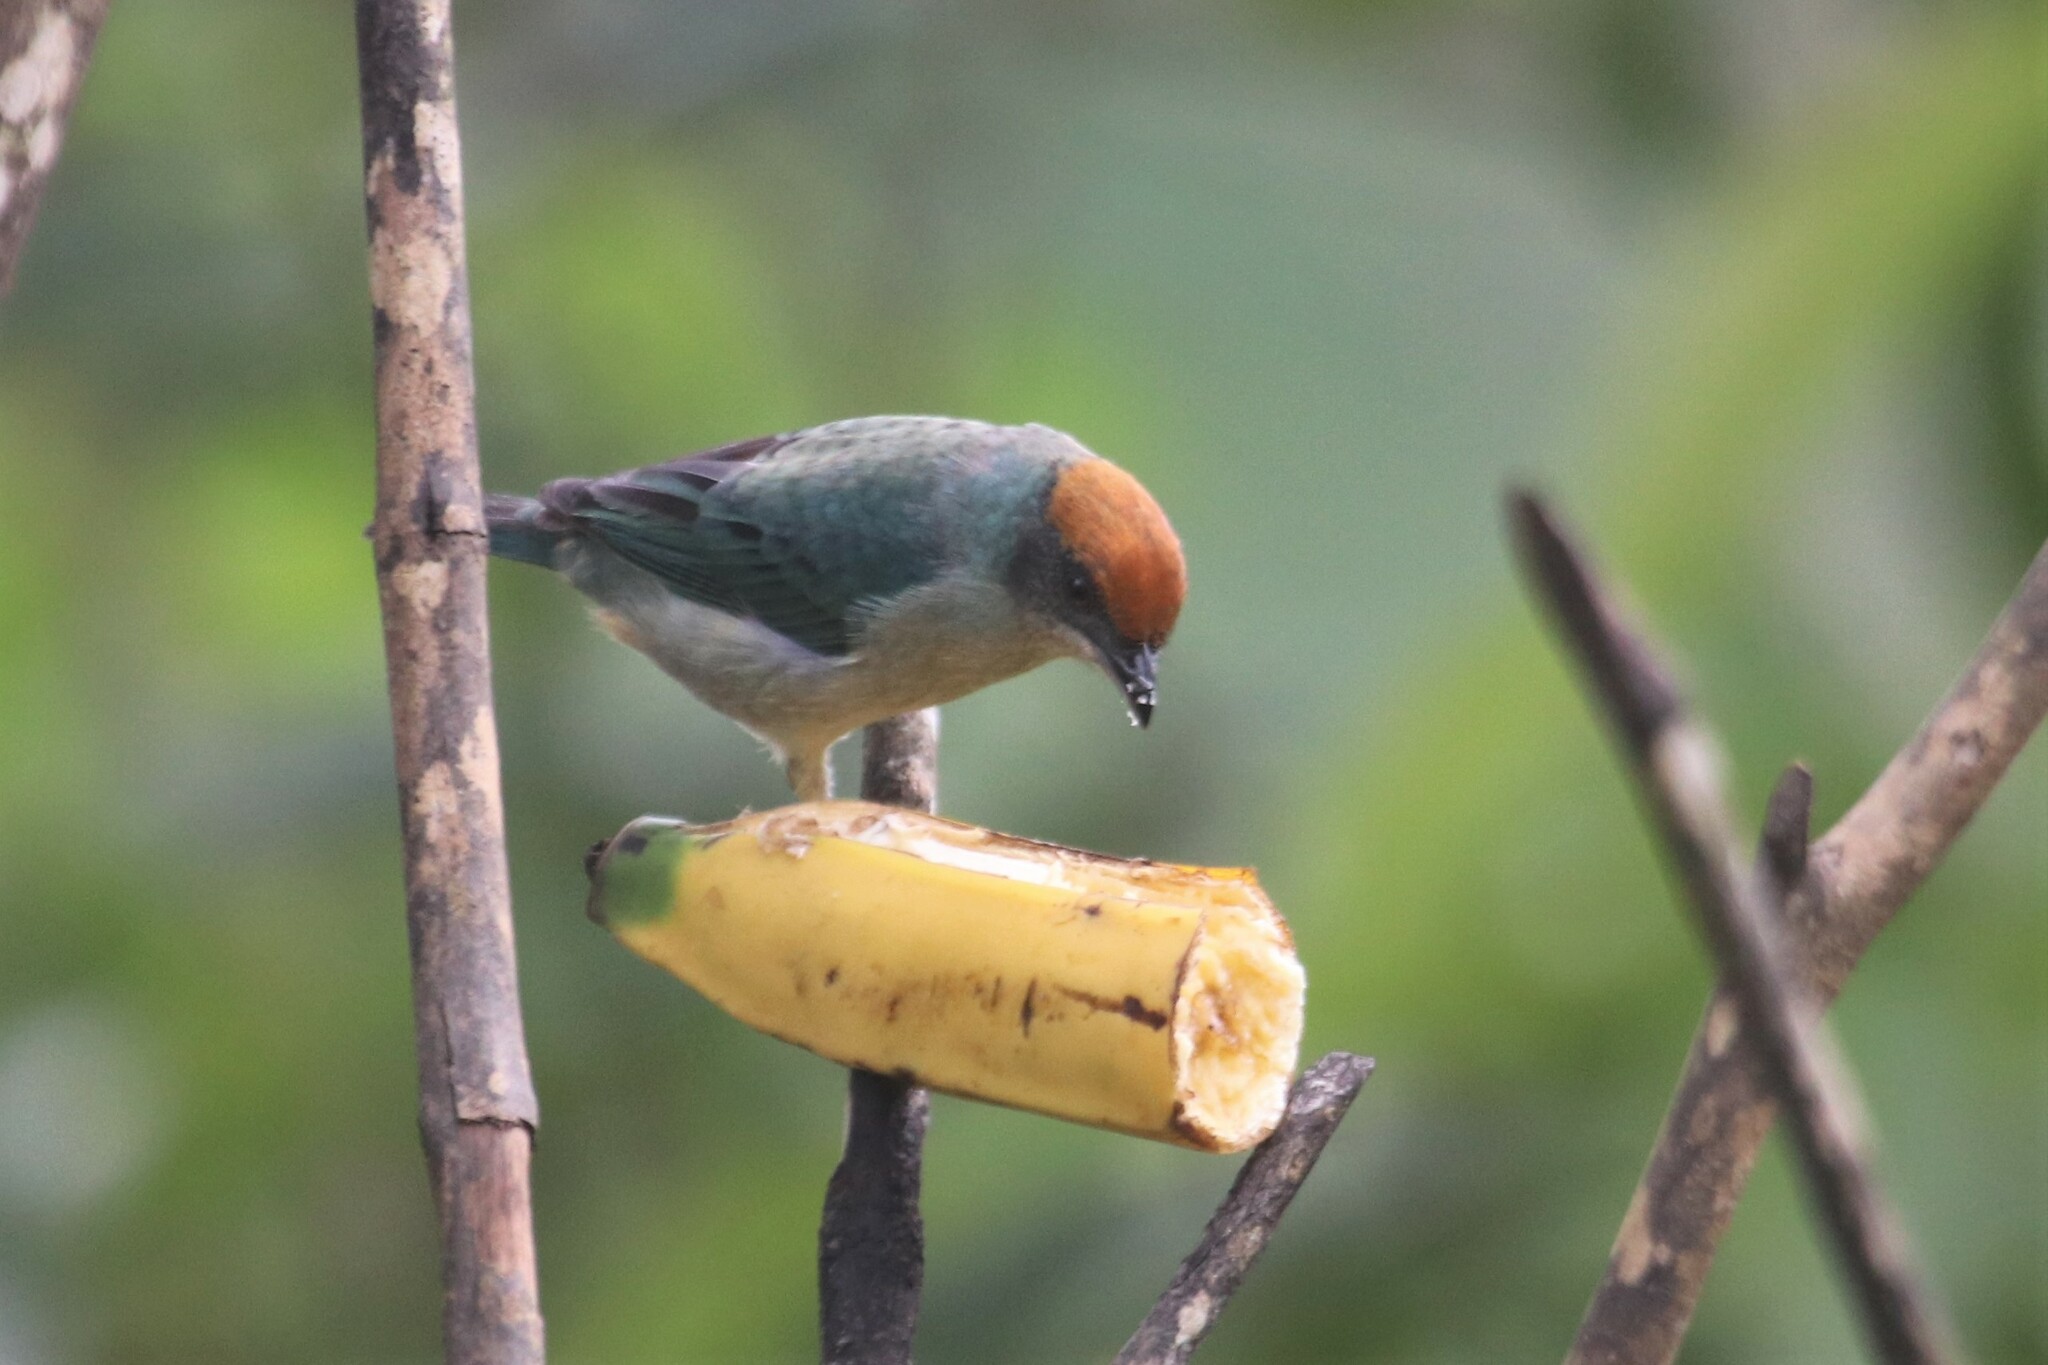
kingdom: Animalia
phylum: Chordata
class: Aves
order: Passeriformes
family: Thraupidae
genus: Stilpnia
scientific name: Stilpnia vitriolina
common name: Scrub tanager
